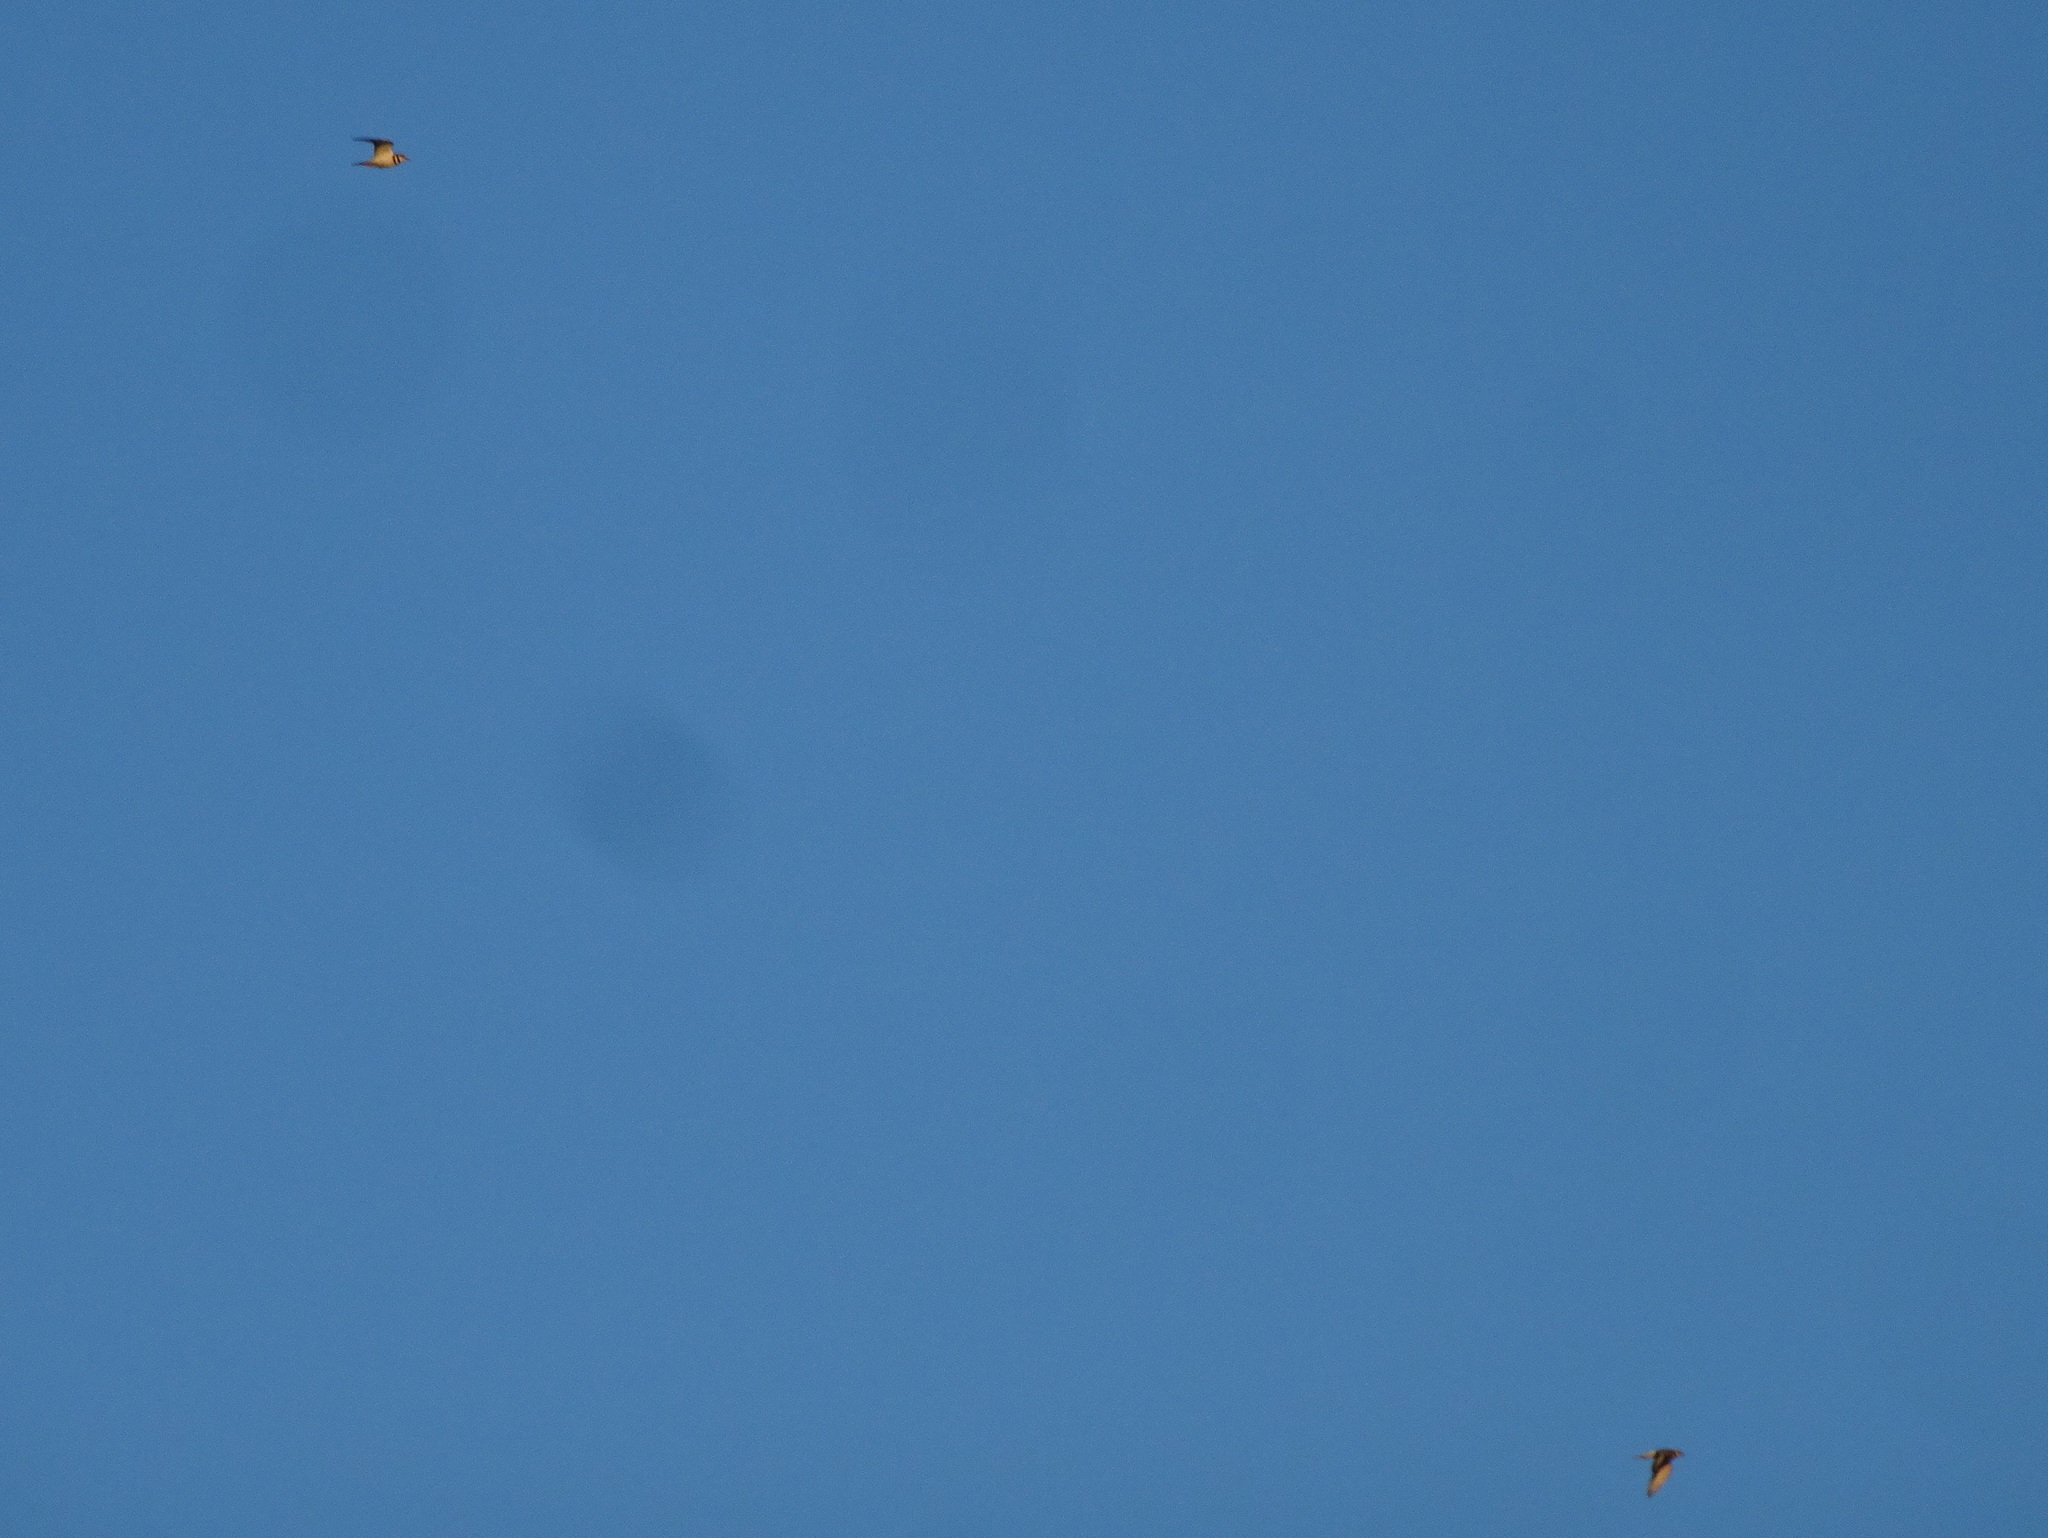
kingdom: Animalia
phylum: Chordata
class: Aves
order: Charadriiformes
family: Charadriidae
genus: Charadrius
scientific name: Charadrius vociferus
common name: Killdeer
